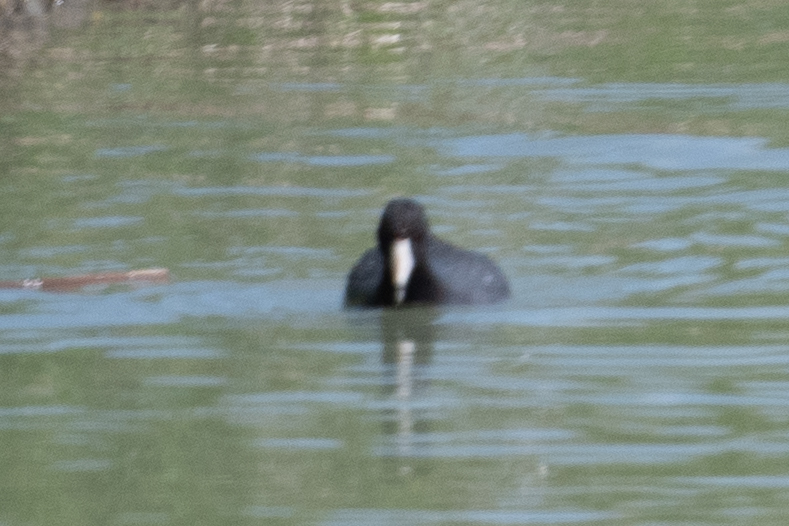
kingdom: Animalia
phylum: Chordata
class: Aves
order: Gruiformes
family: Rallidae
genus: Fulica
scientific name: Fulica americana
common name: American coot
